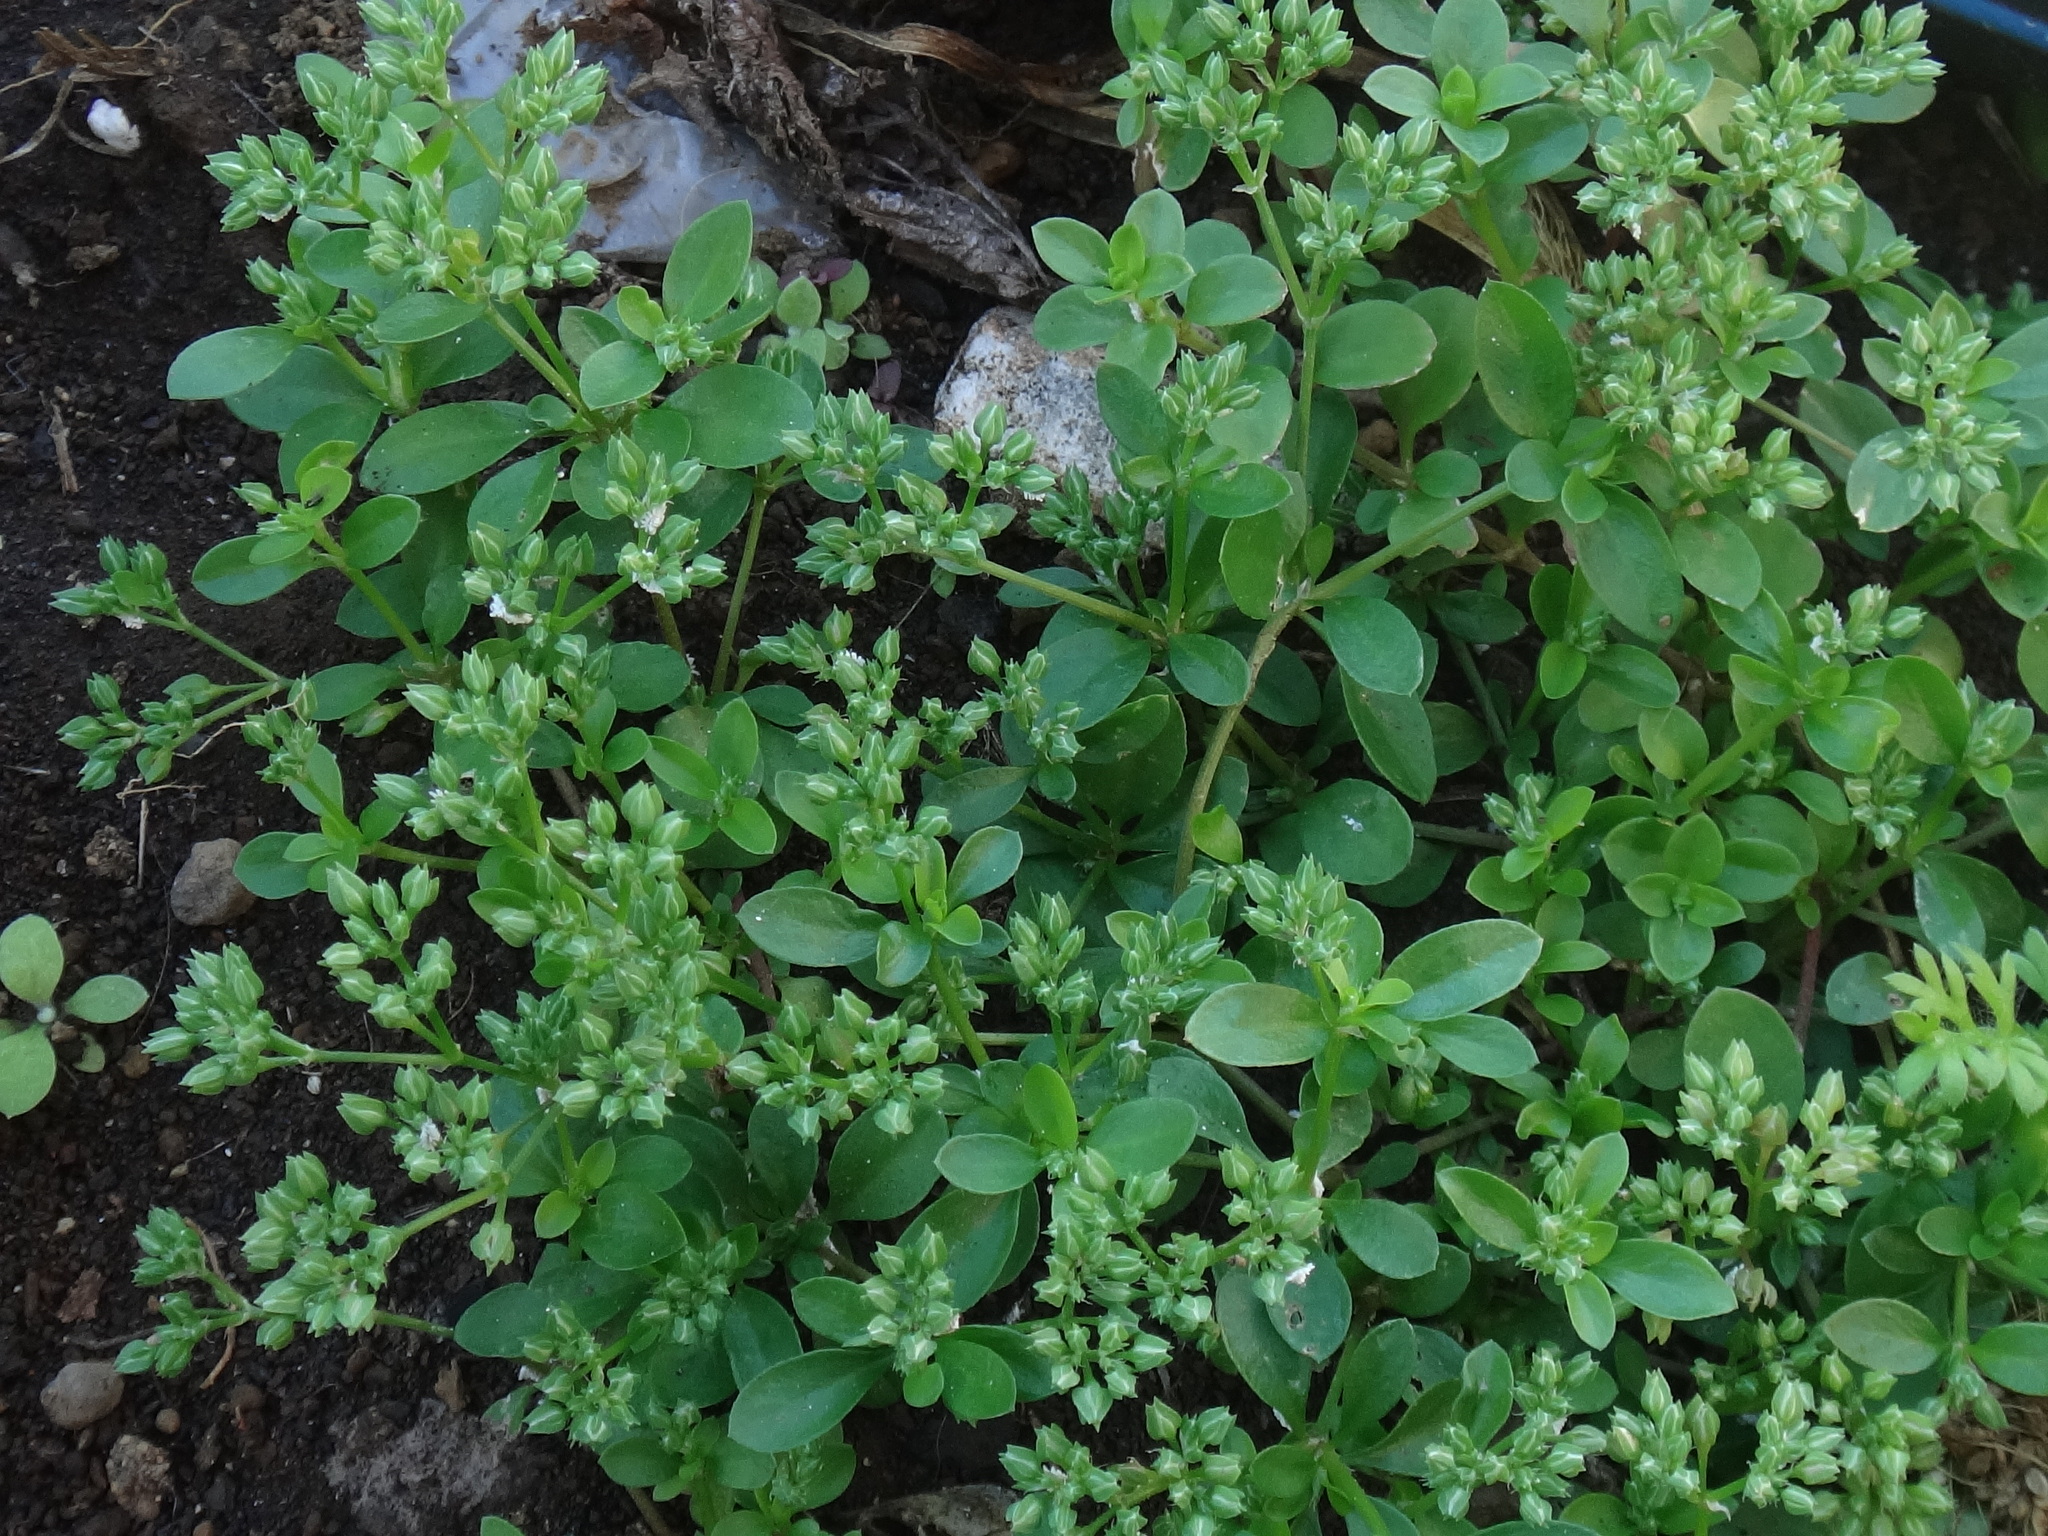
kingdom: Plantae
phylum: Tracheophyta
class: Magnoliopsida
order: Caryophyllales
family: Caryophyllaceae
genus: Polycarpon
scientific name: Polycarpon tetraphyllum
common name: Four-leaved all-seed
